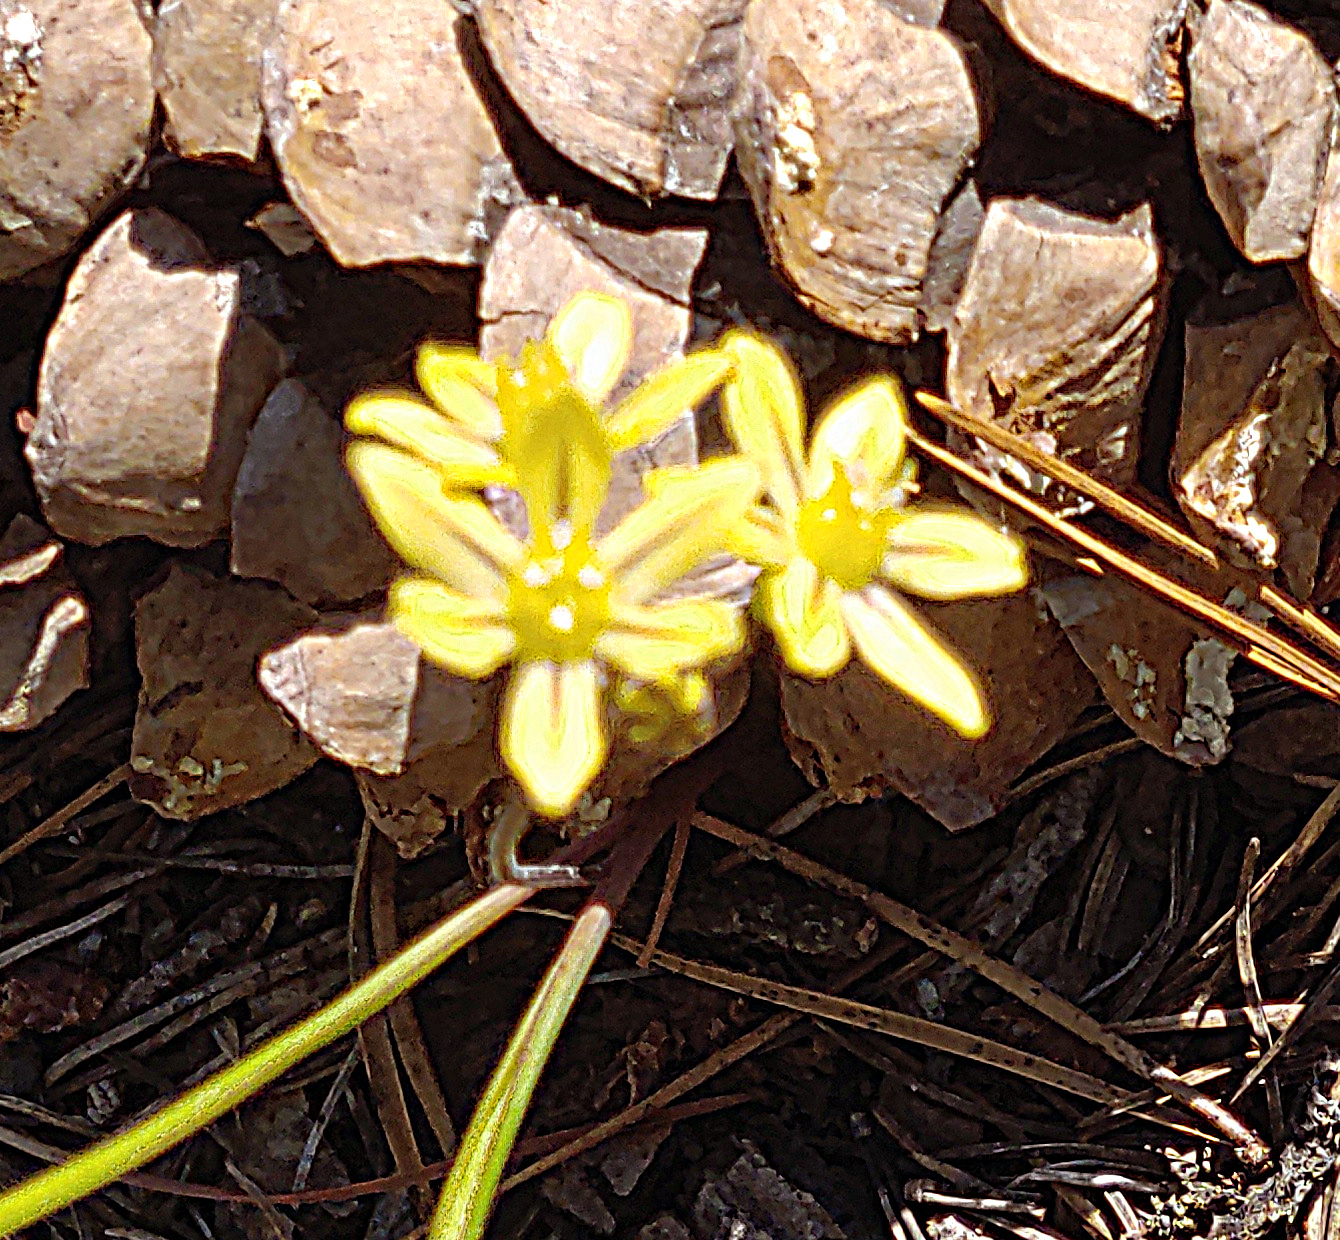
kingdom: Plantae
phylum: Tracheophyta
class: Liliopsida
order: Asparagales
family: Asparagaceae
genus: Triteleia
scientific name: Triteleia ixioides
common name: Yellow-brodiaea
